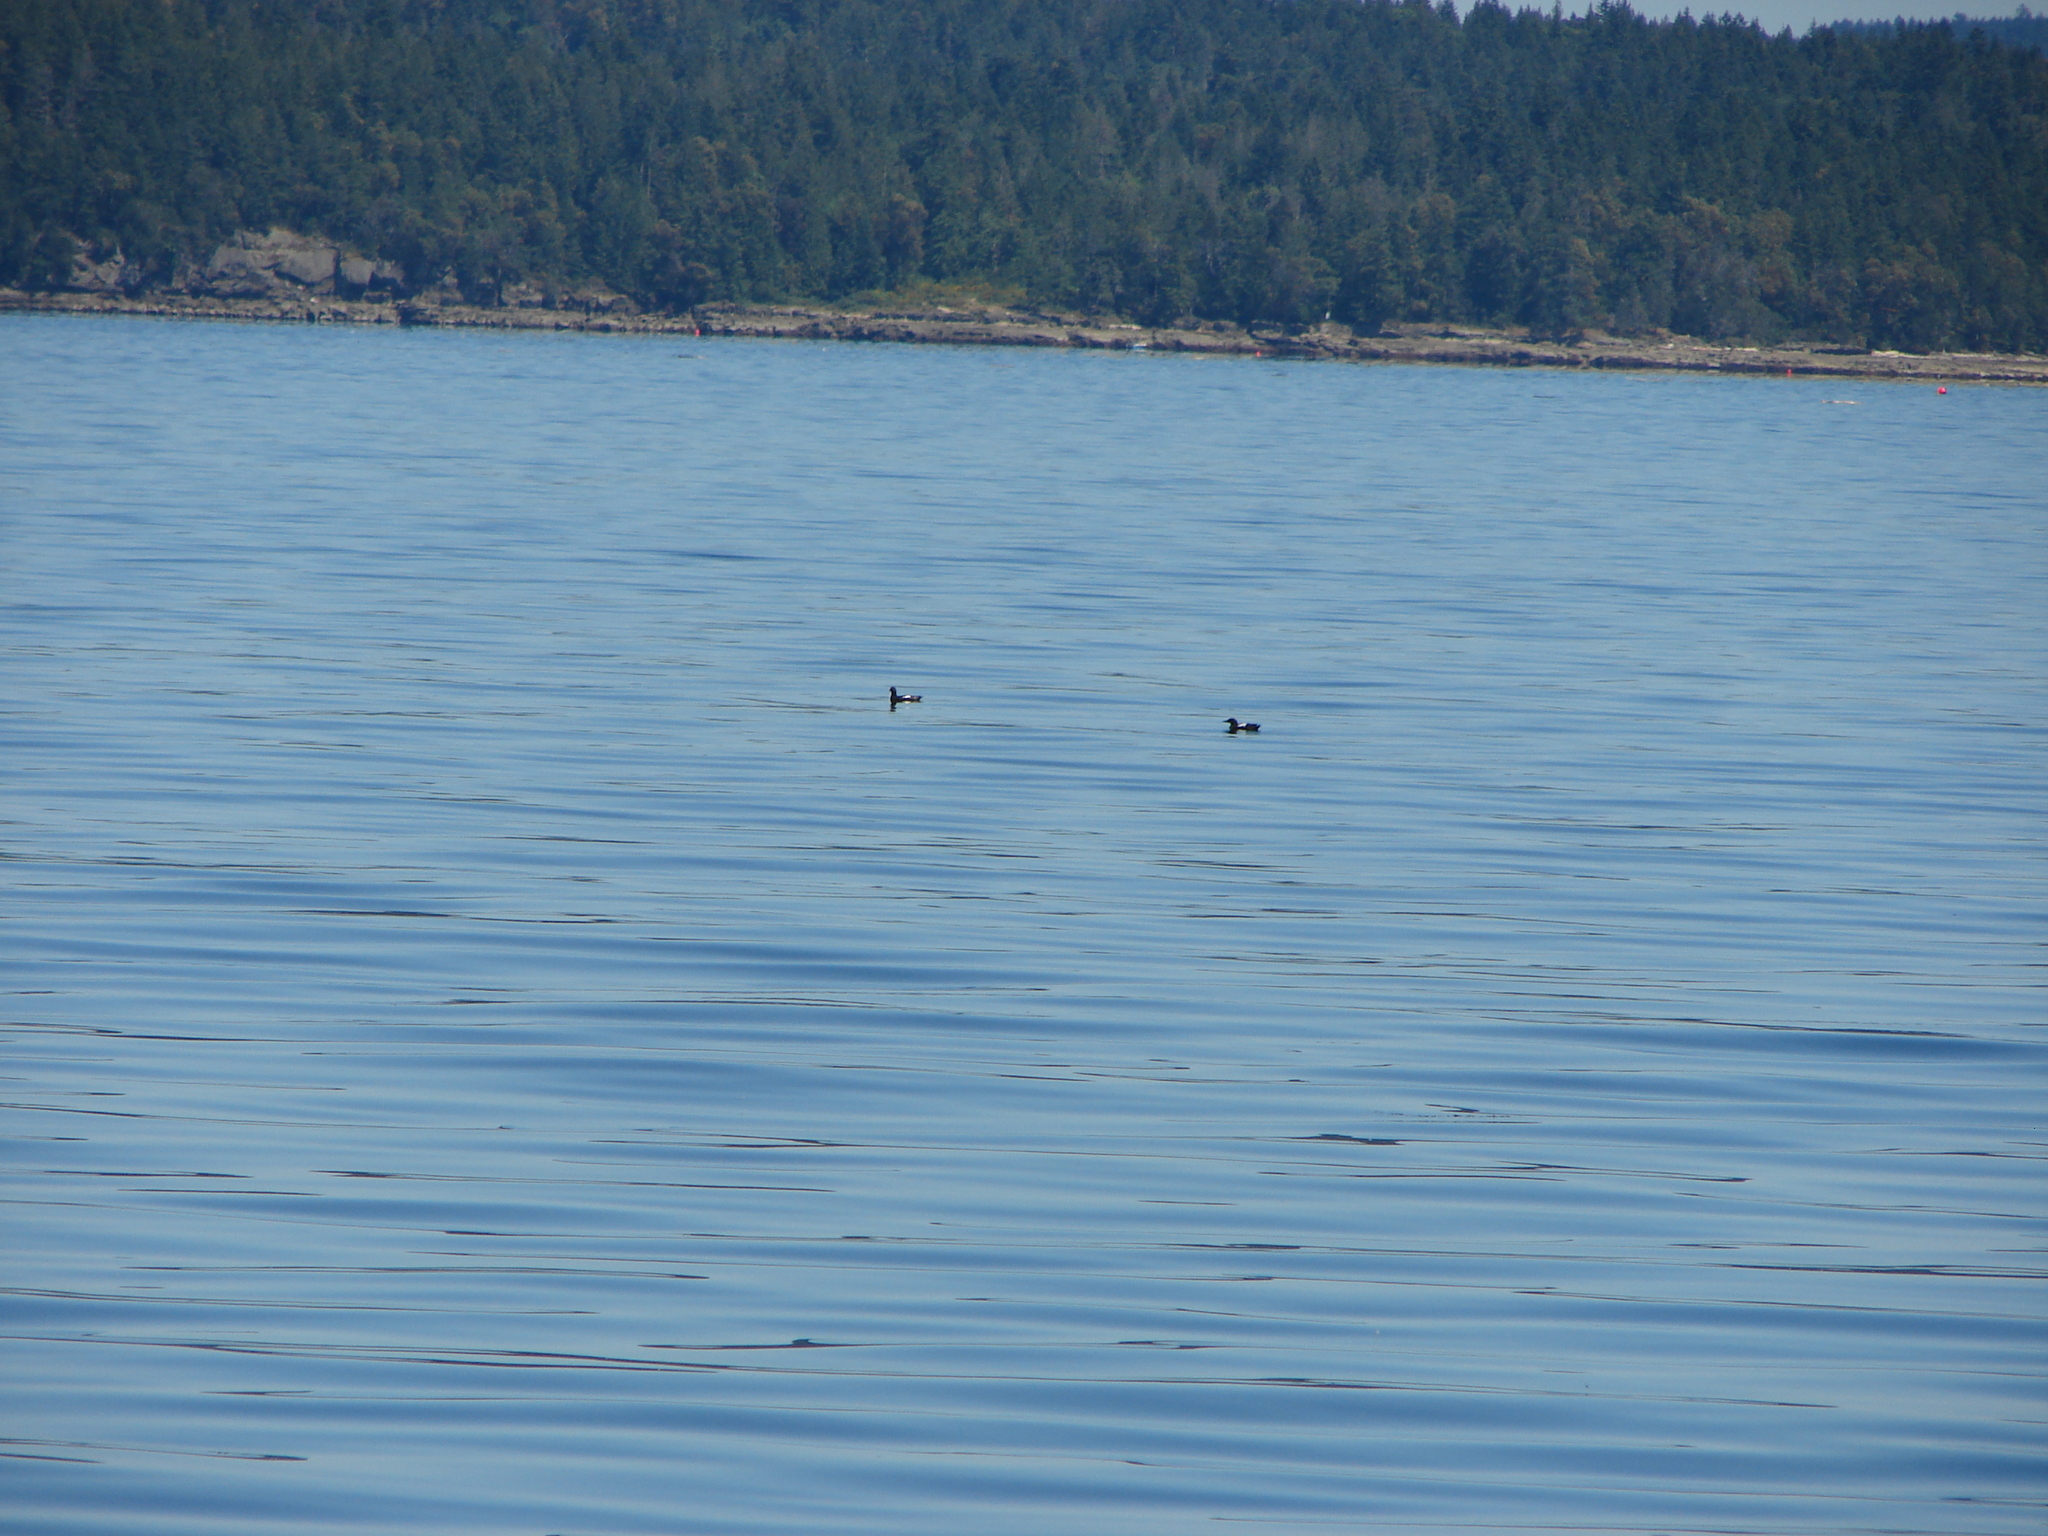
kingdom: Animalia
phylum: Chordata
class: Aves
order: Charadriiformes
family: Alcidae
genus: Cepphus
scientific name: Cepphus columba
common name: Pigeon guillemot
